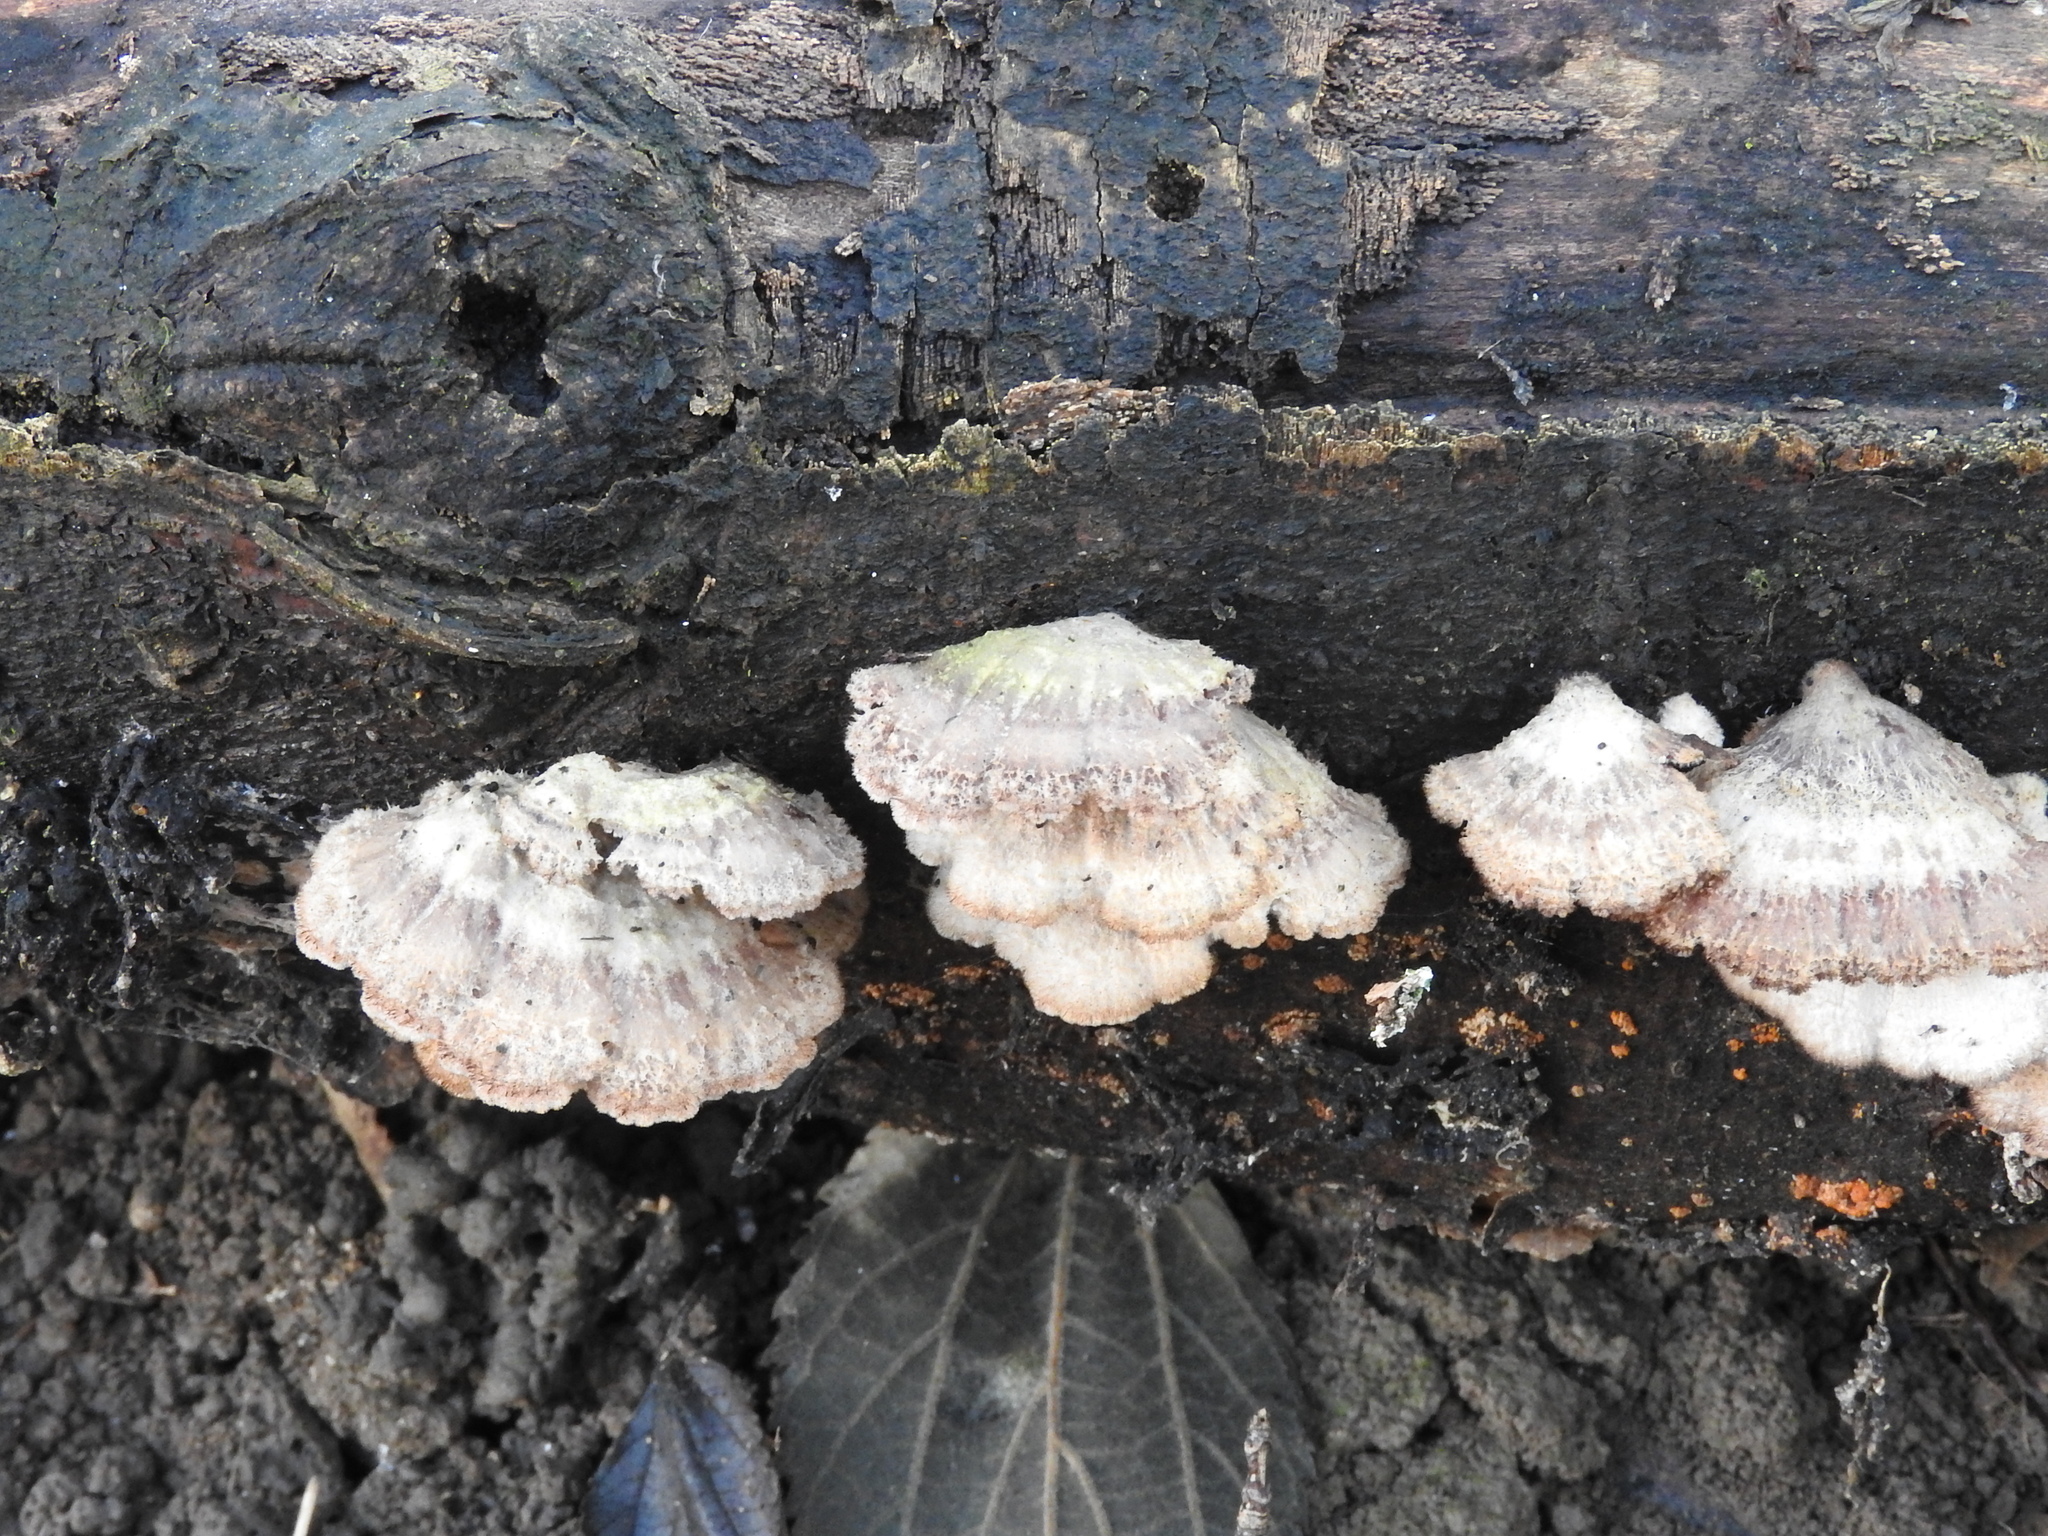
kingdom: Fungi
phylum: Basidiomycota
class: Agaricomycetes
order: Agaricales
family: Schizophyllaceae
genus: Schizophyllum
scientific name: Schizophyllum commune
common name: Common porecrust
